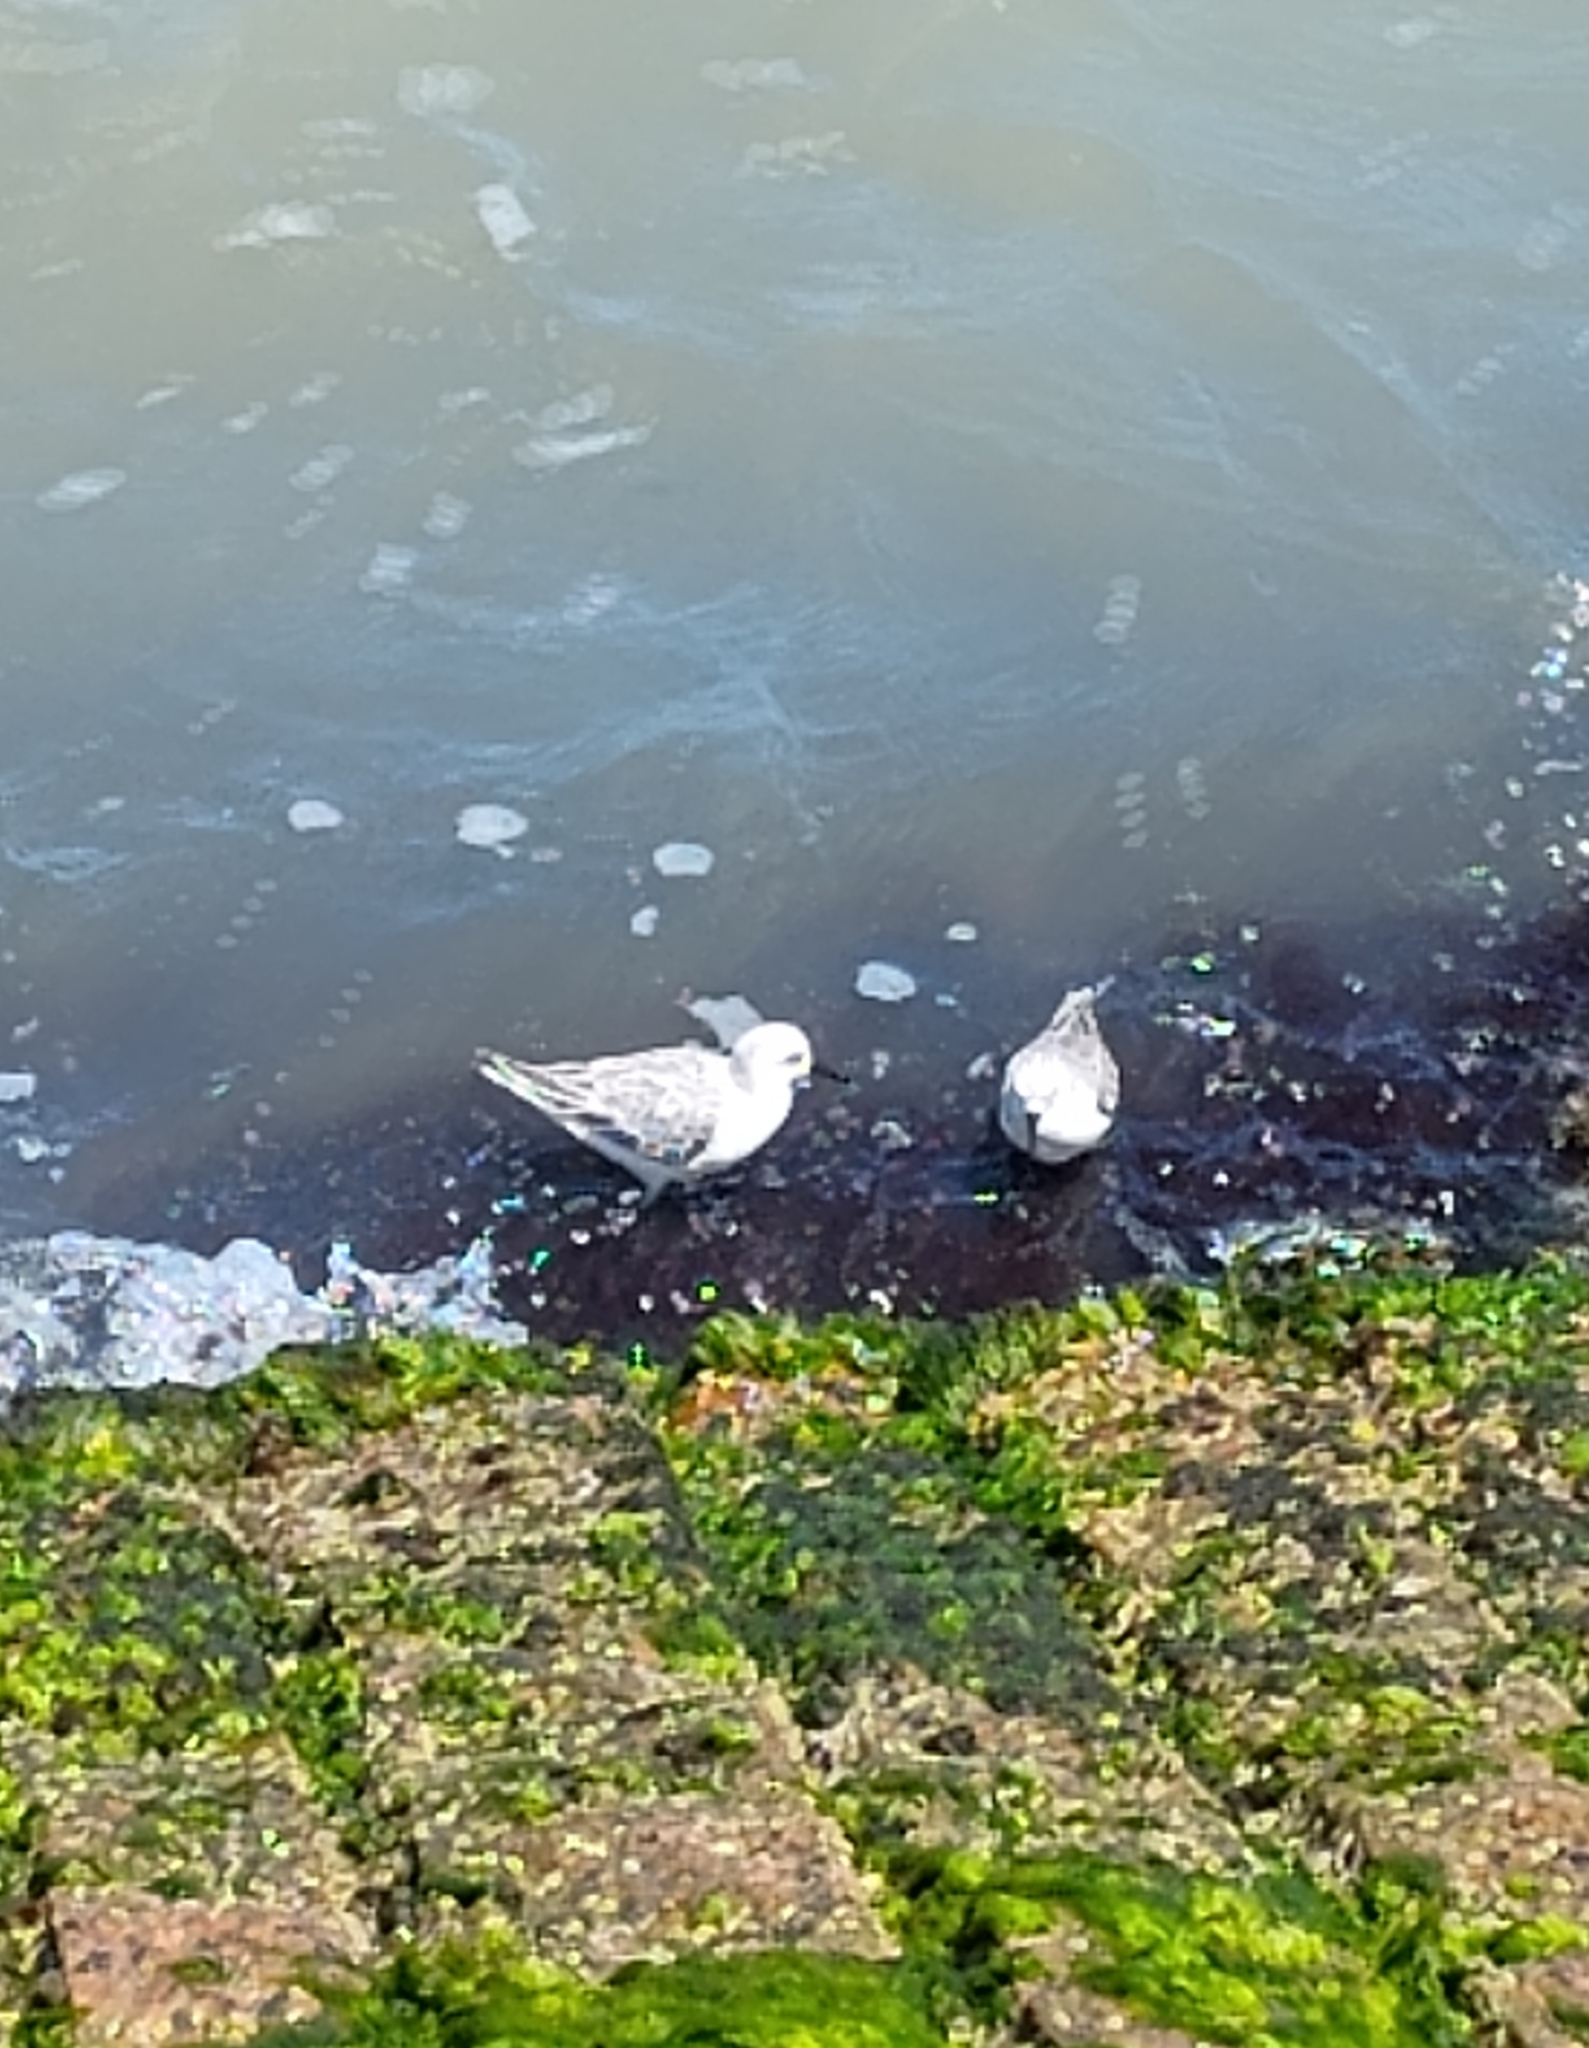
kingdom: Animalia
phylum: Chordata
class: Aves
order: Charadriiformes
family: Scolopacidae
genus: Calidris
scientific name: Calidris alba
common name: Sanderling
